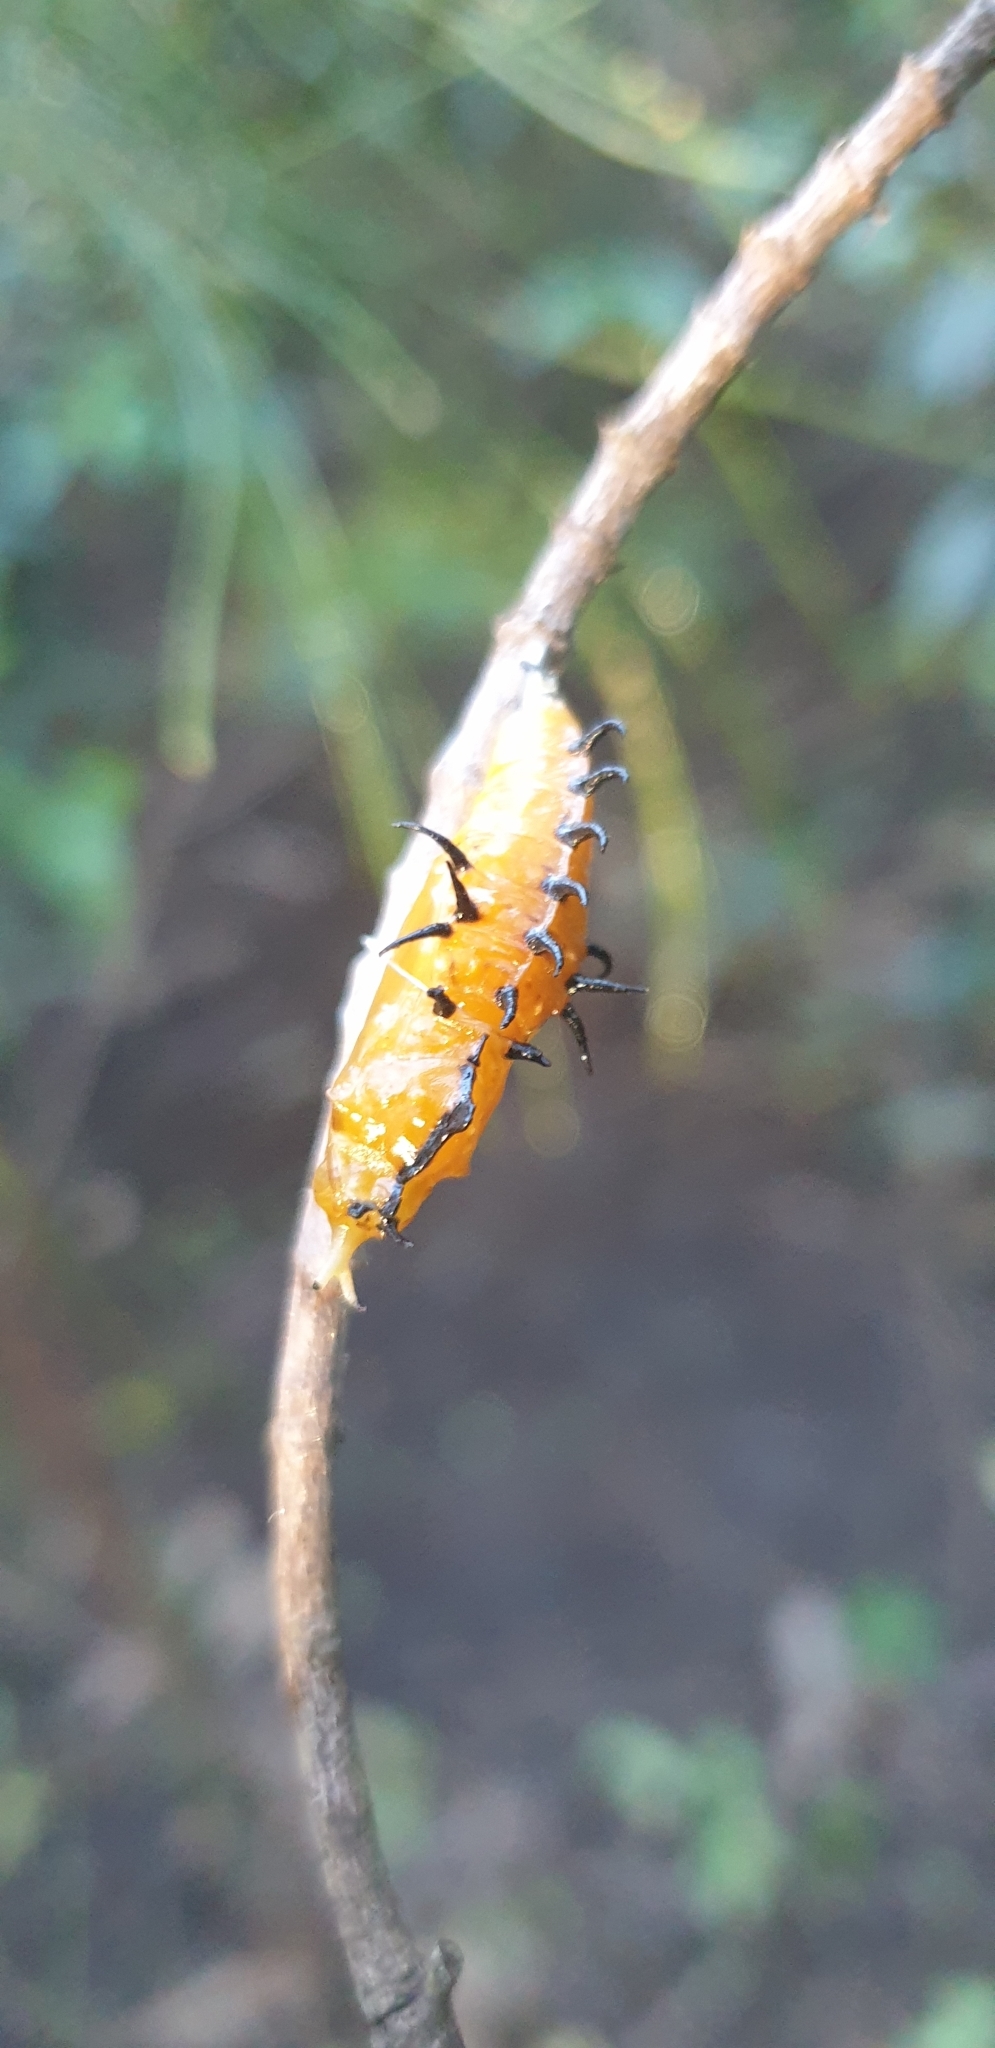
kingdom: Animalia
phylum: Arthropoda
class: Insecta
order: Lepidoptera
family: Pieridae
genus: Delias
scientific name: Delias nigrina
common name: Black jezebel
